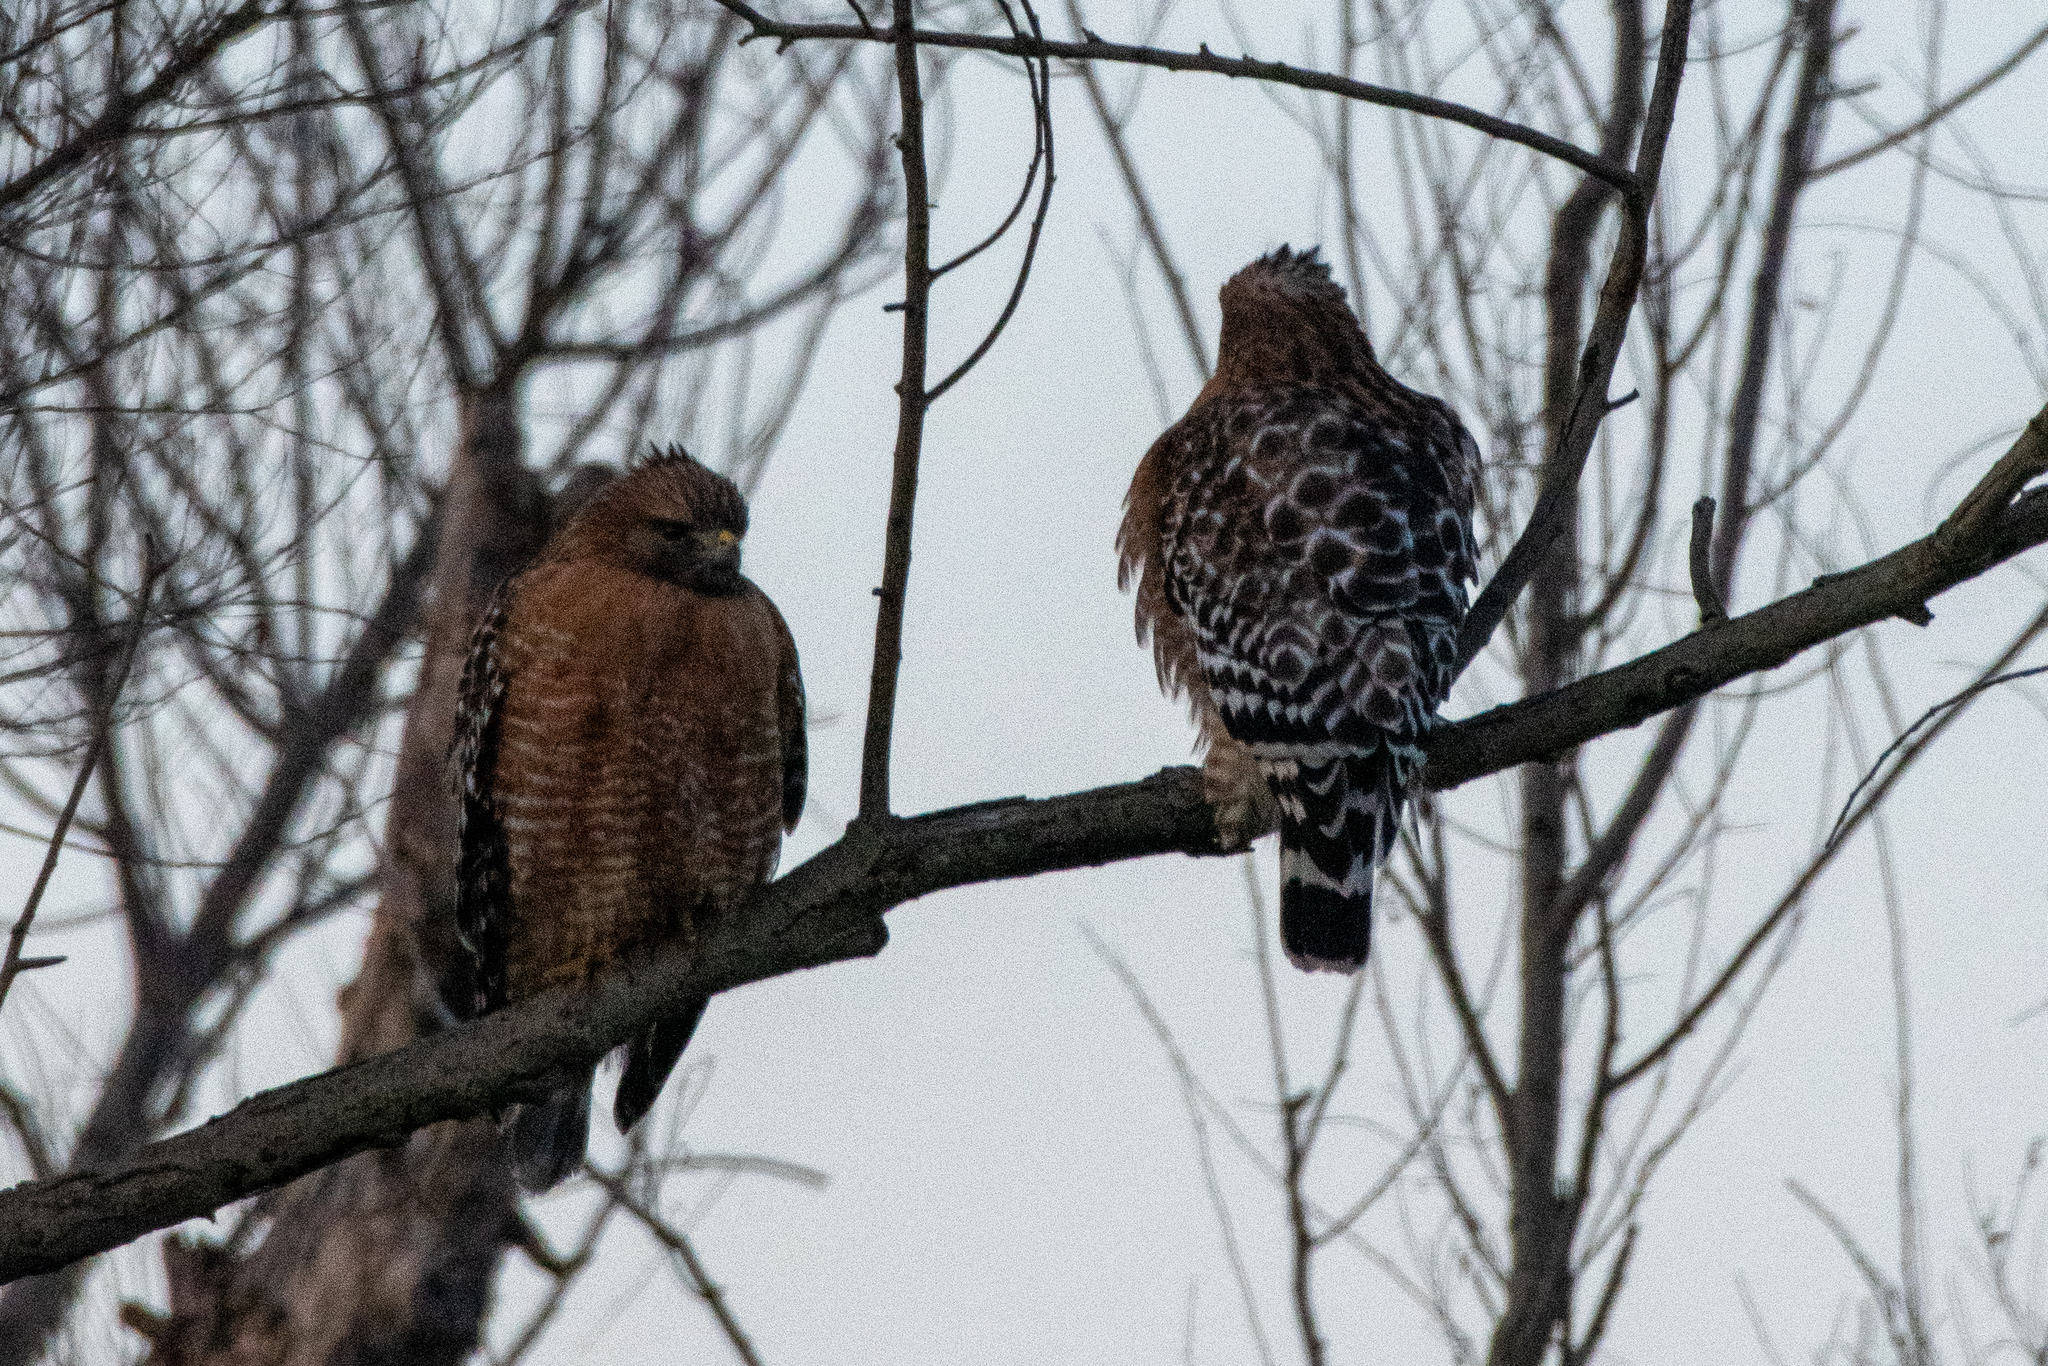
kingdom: Animalia
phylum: Chordata
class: Aves
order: Accipitriformes
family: Accipitridae
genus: Buteo
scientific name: Buteo lineatus
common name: Red-shouldered hawk
